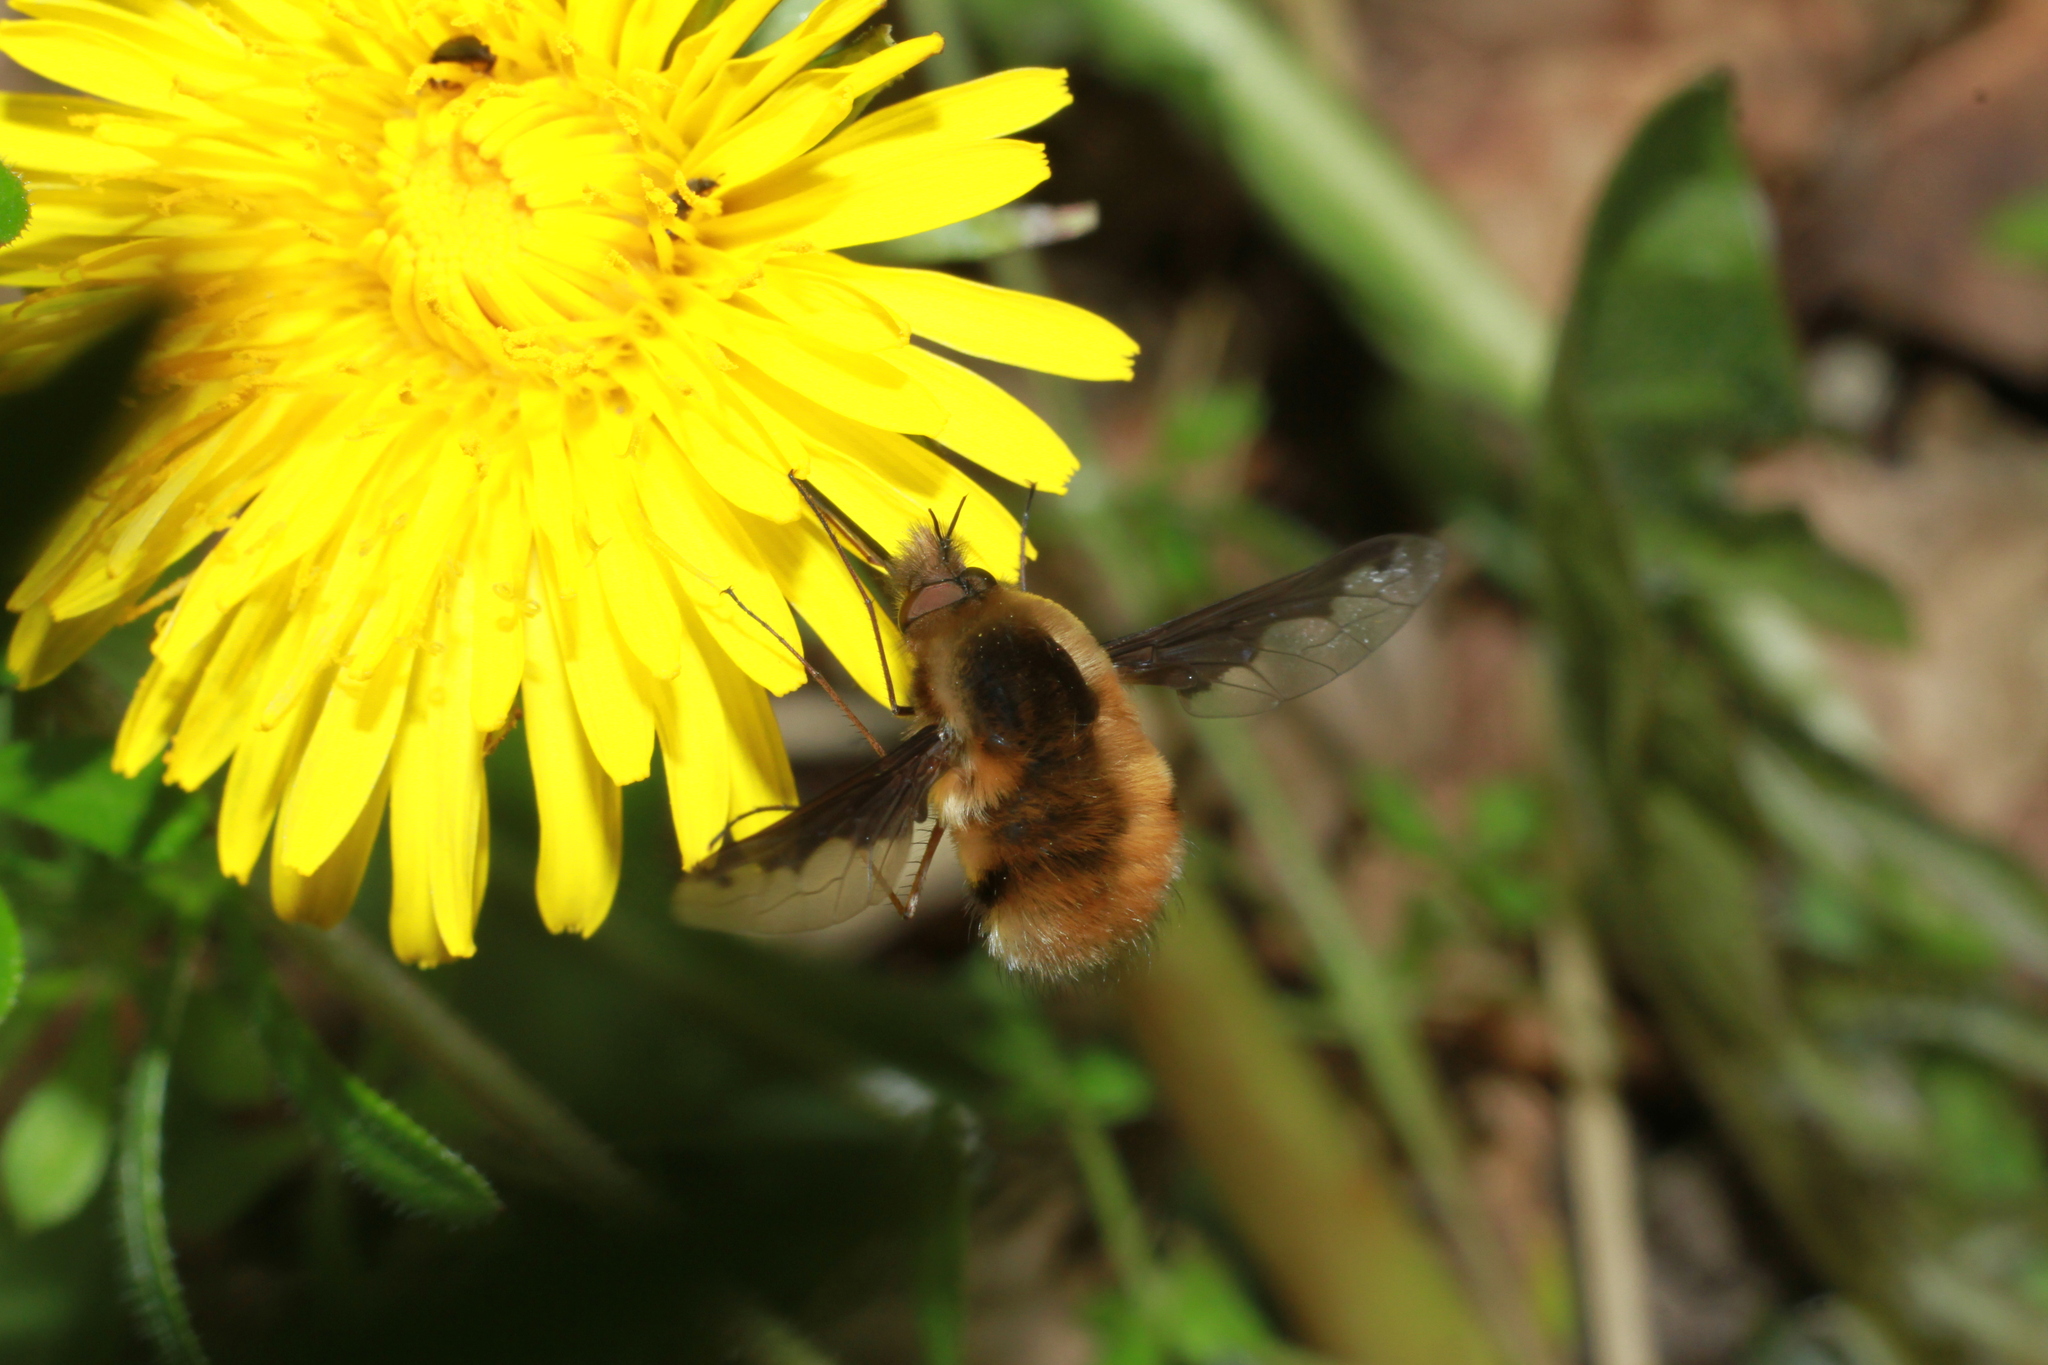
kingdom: Animalia
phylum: Arthropoda
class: Insecta
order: Diptera
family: Bombyliidae
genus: Bombylius
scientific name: Bombylius major
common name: Bee fly
